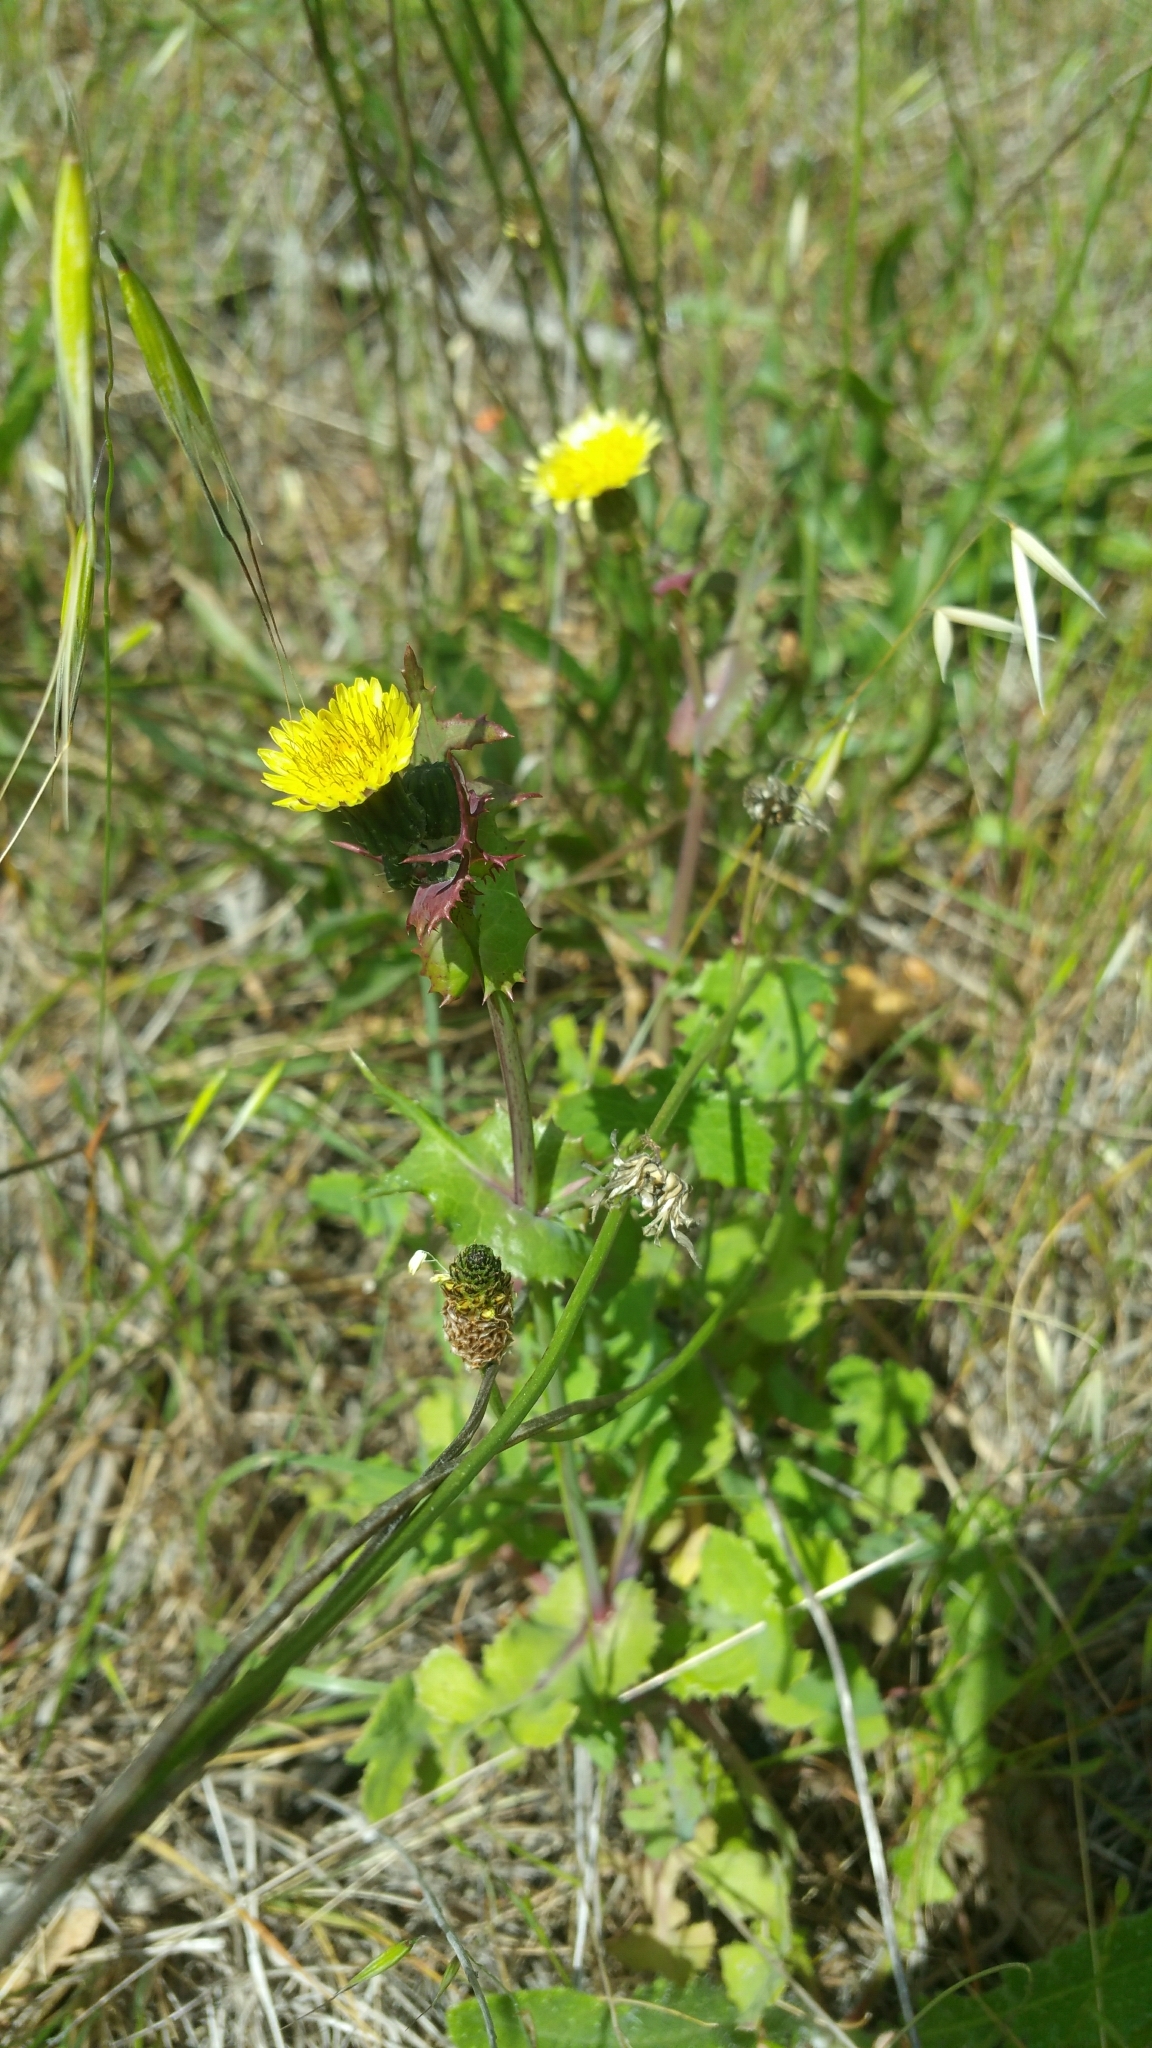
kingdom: Plantae
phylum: Tracheophyta
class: Magnoliopsida
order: Asterales
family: Asteraceae
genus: Sonchus
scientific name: Sonchus oleraceus
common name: Common sowthistle
